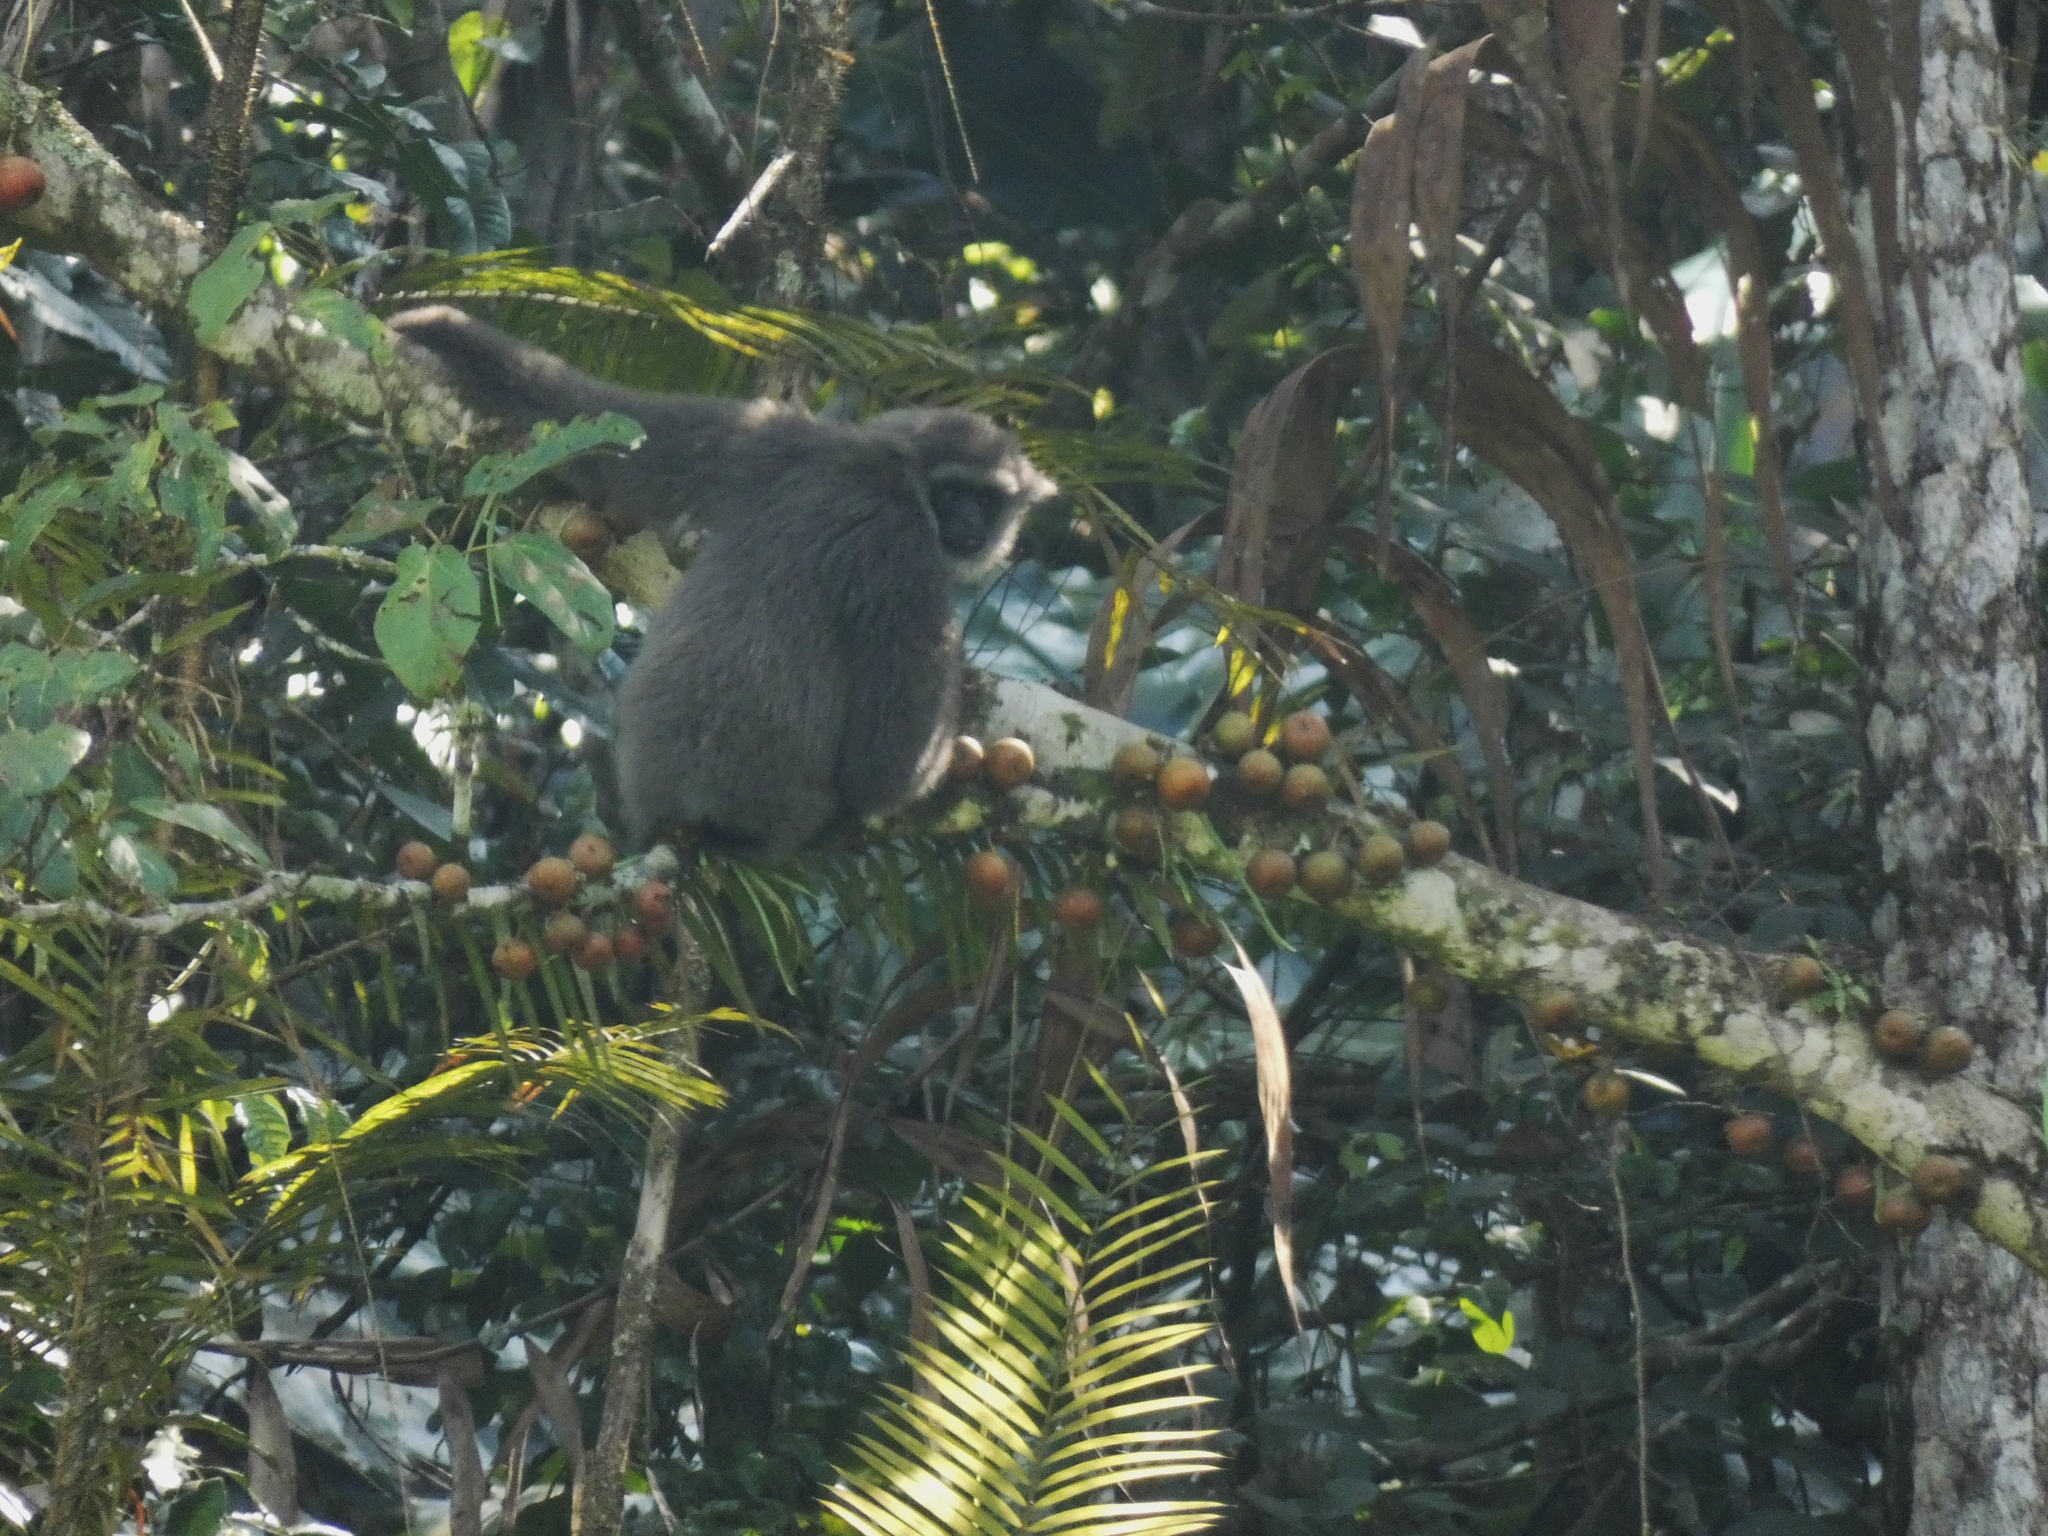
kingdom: Animalia
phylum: Chordata
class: Mammalia
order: Primates
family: Hylobatidae
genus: Hylobates
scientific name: Hylobates moloch
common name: Silvery javan gibbon
